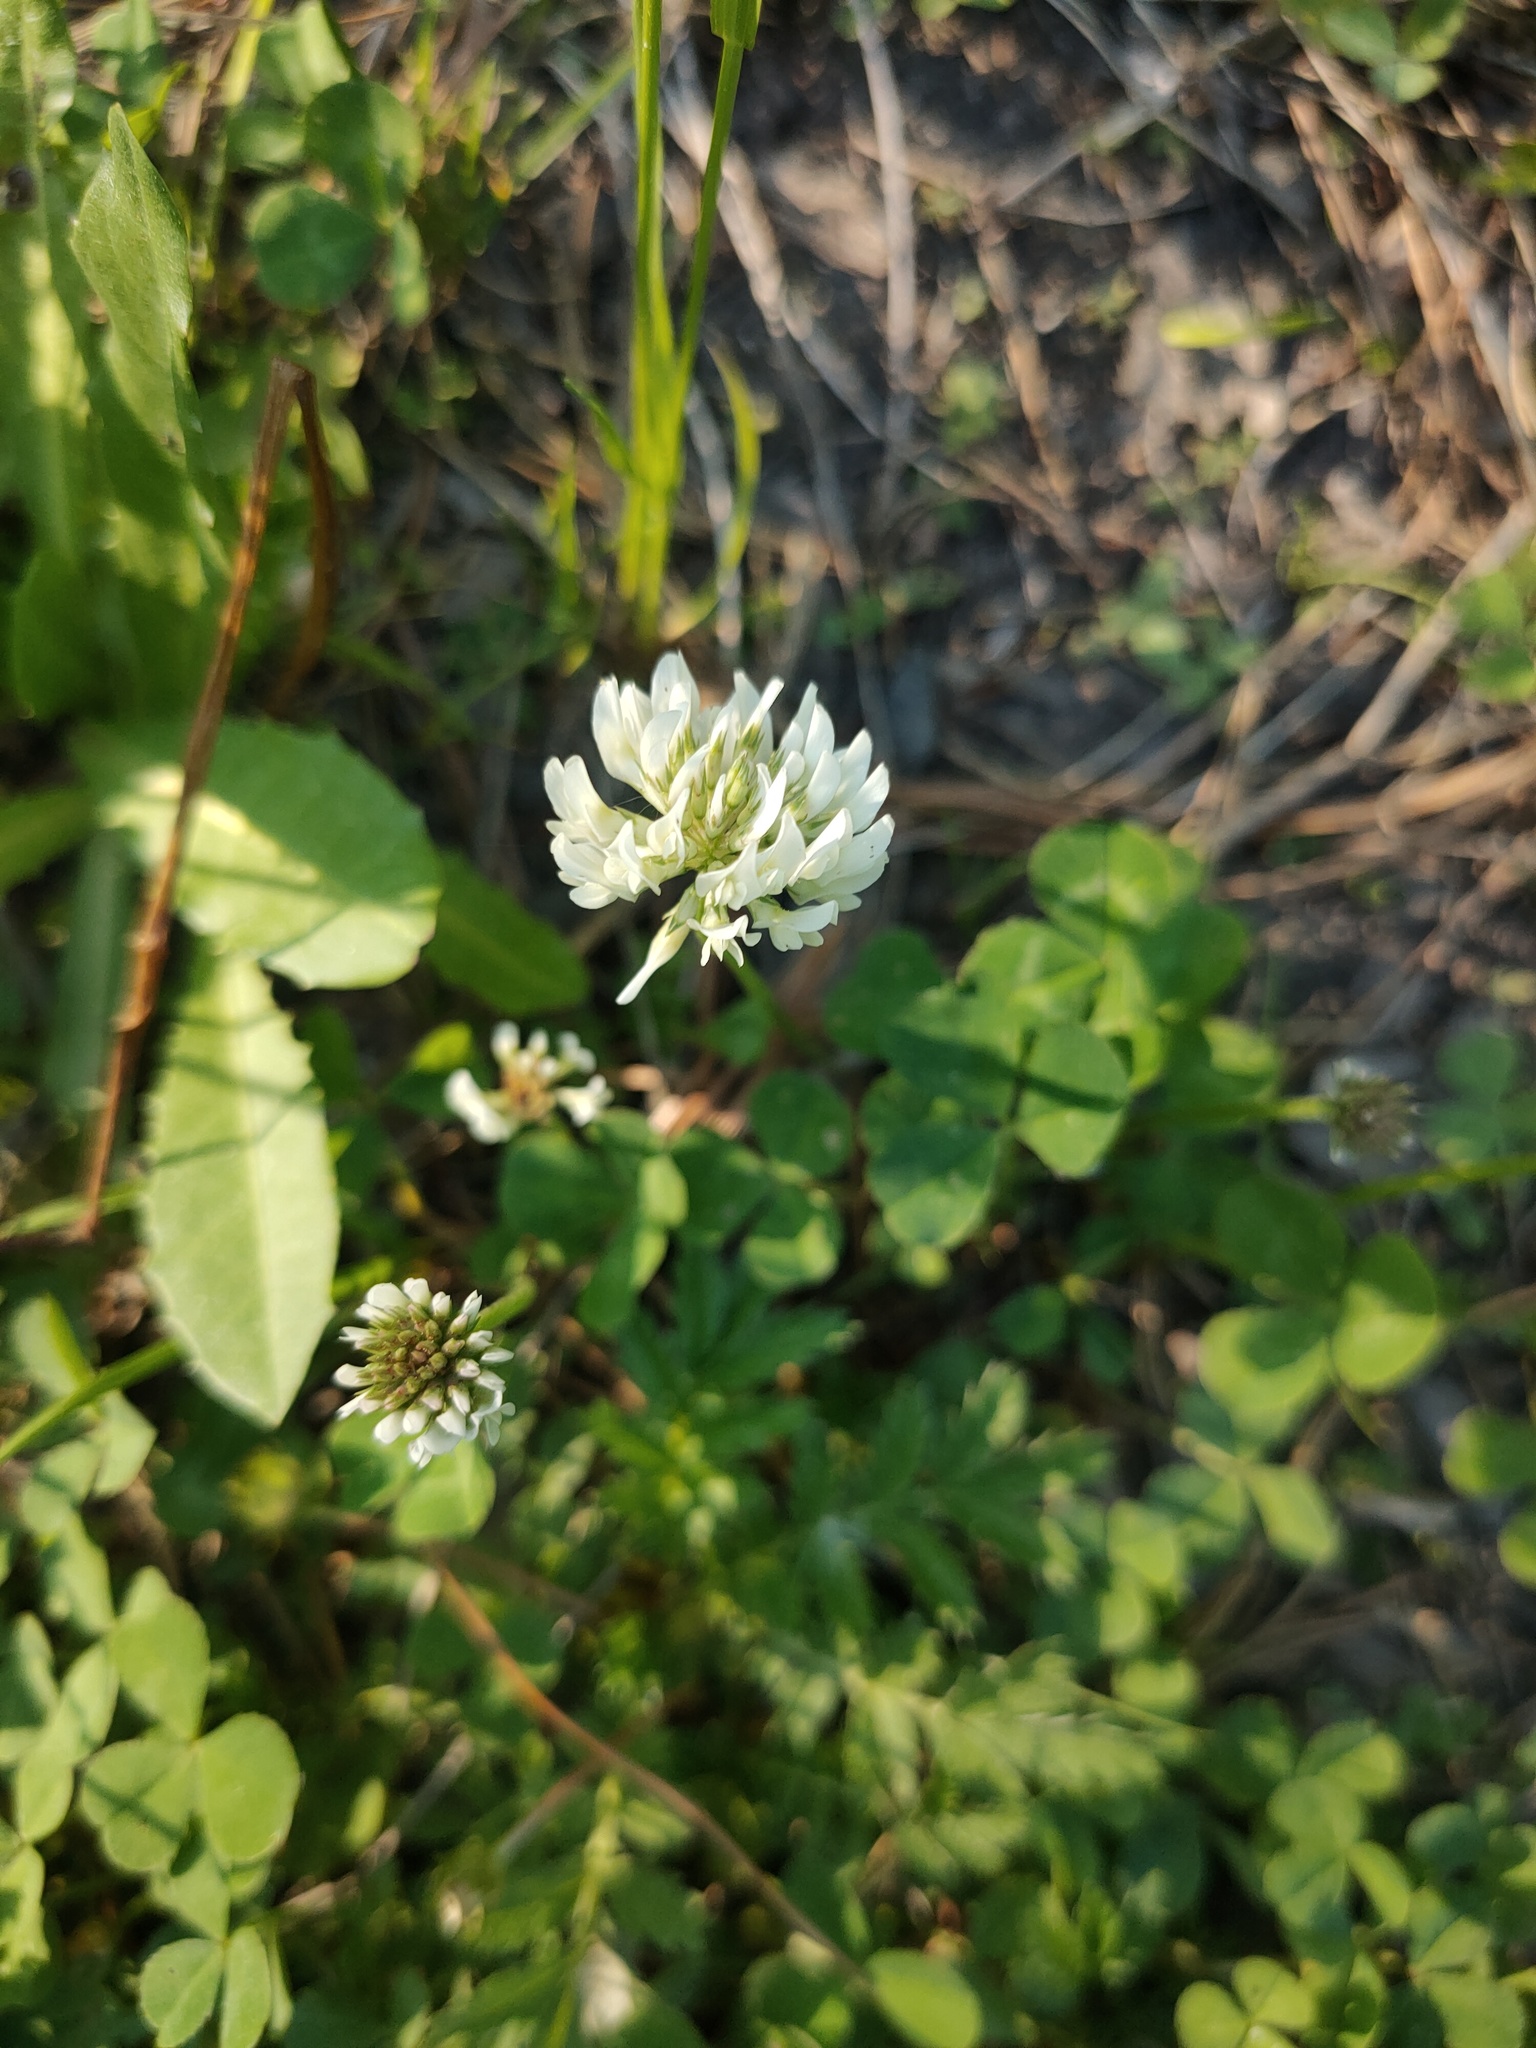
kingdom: Plantae
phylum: Tracheophyta
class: Magnoliopsida
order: Fabales
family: Fabaceae
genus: Trifolium
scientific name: Trifolium repens
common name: White clover
